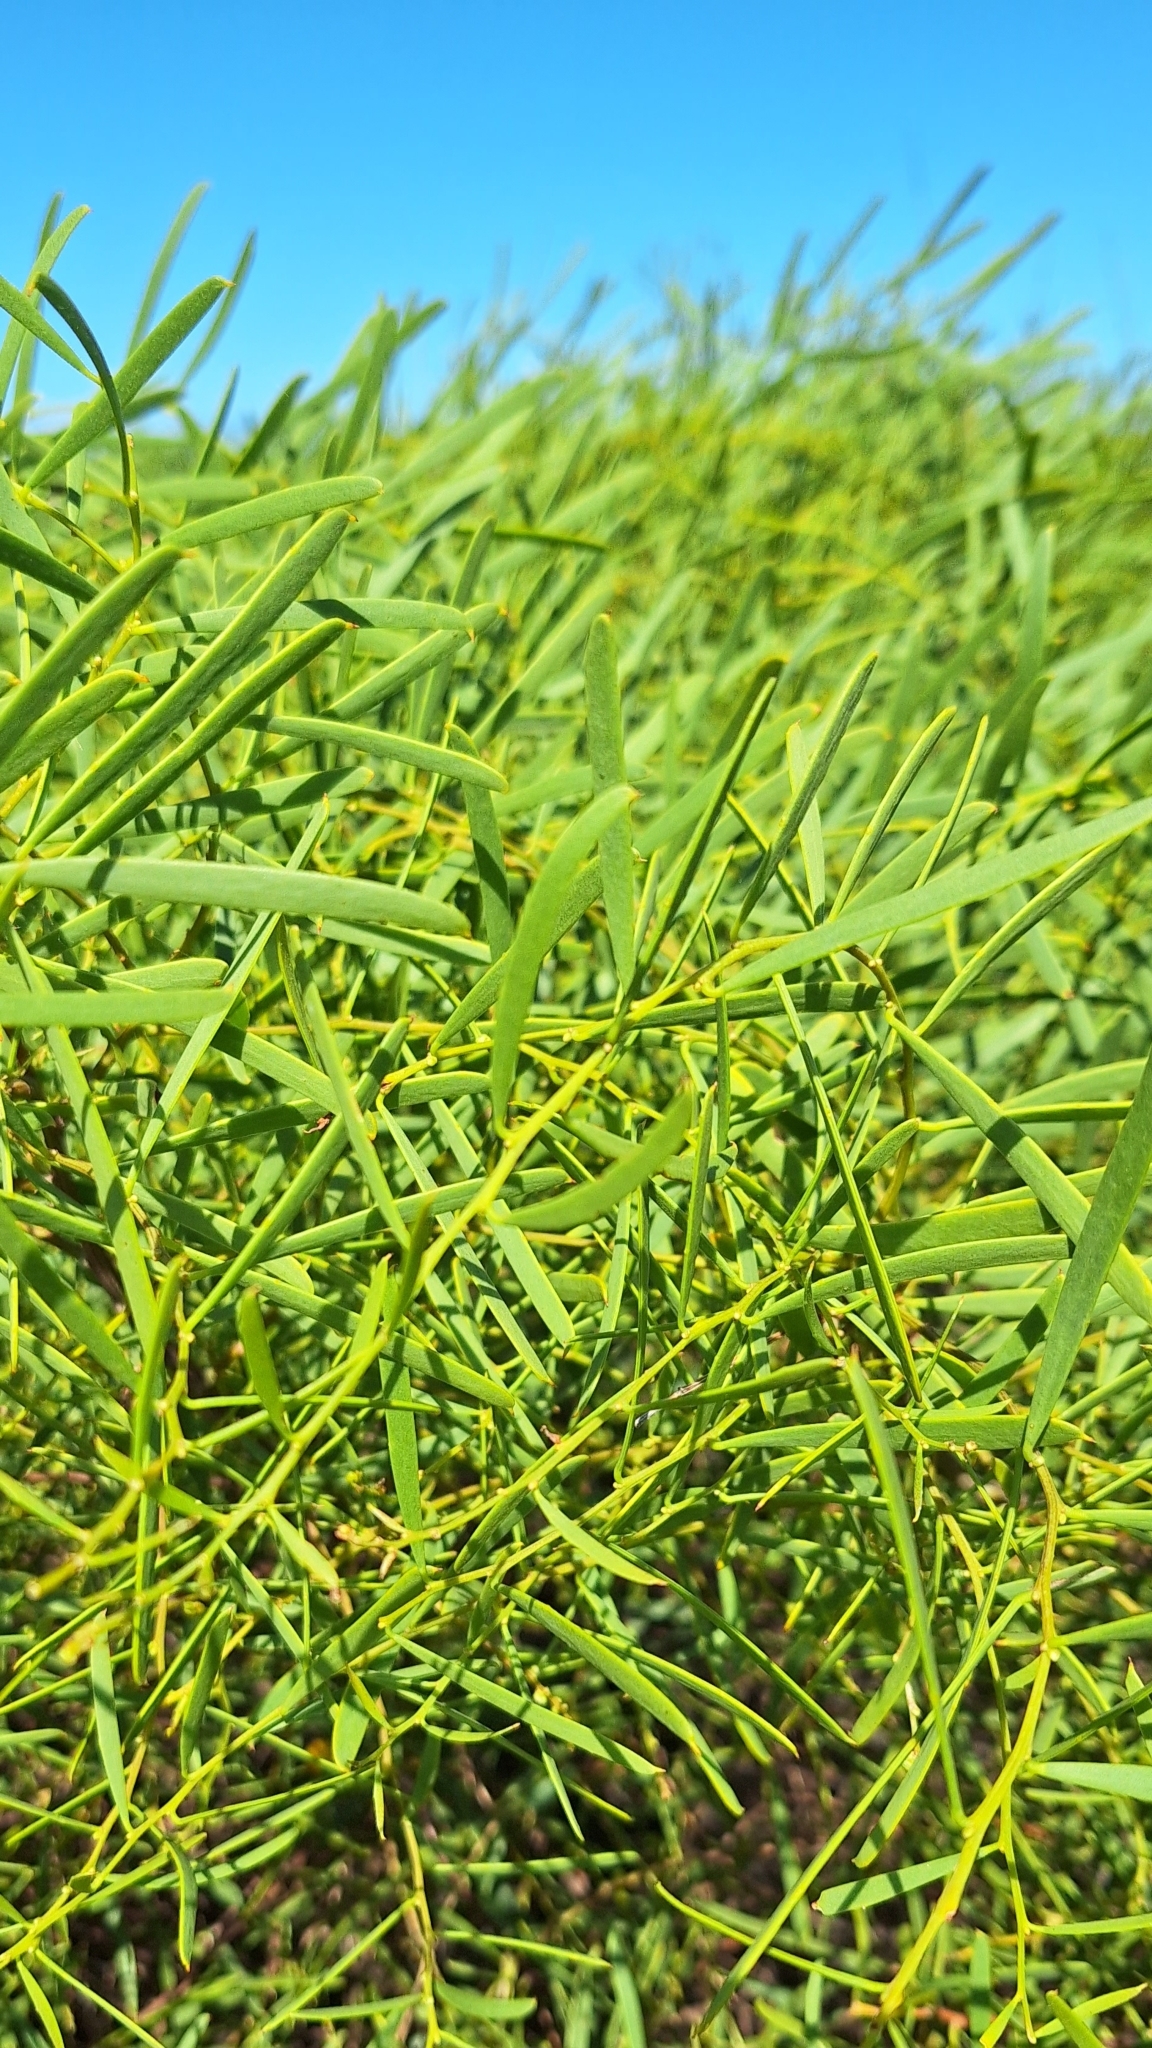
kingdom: Plantae
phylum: Tracheophyta
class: Magnoliopsida
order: Fabales
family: Fabaceae
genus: Acacia
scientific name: Acacia ligulata
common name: Dune wattle
